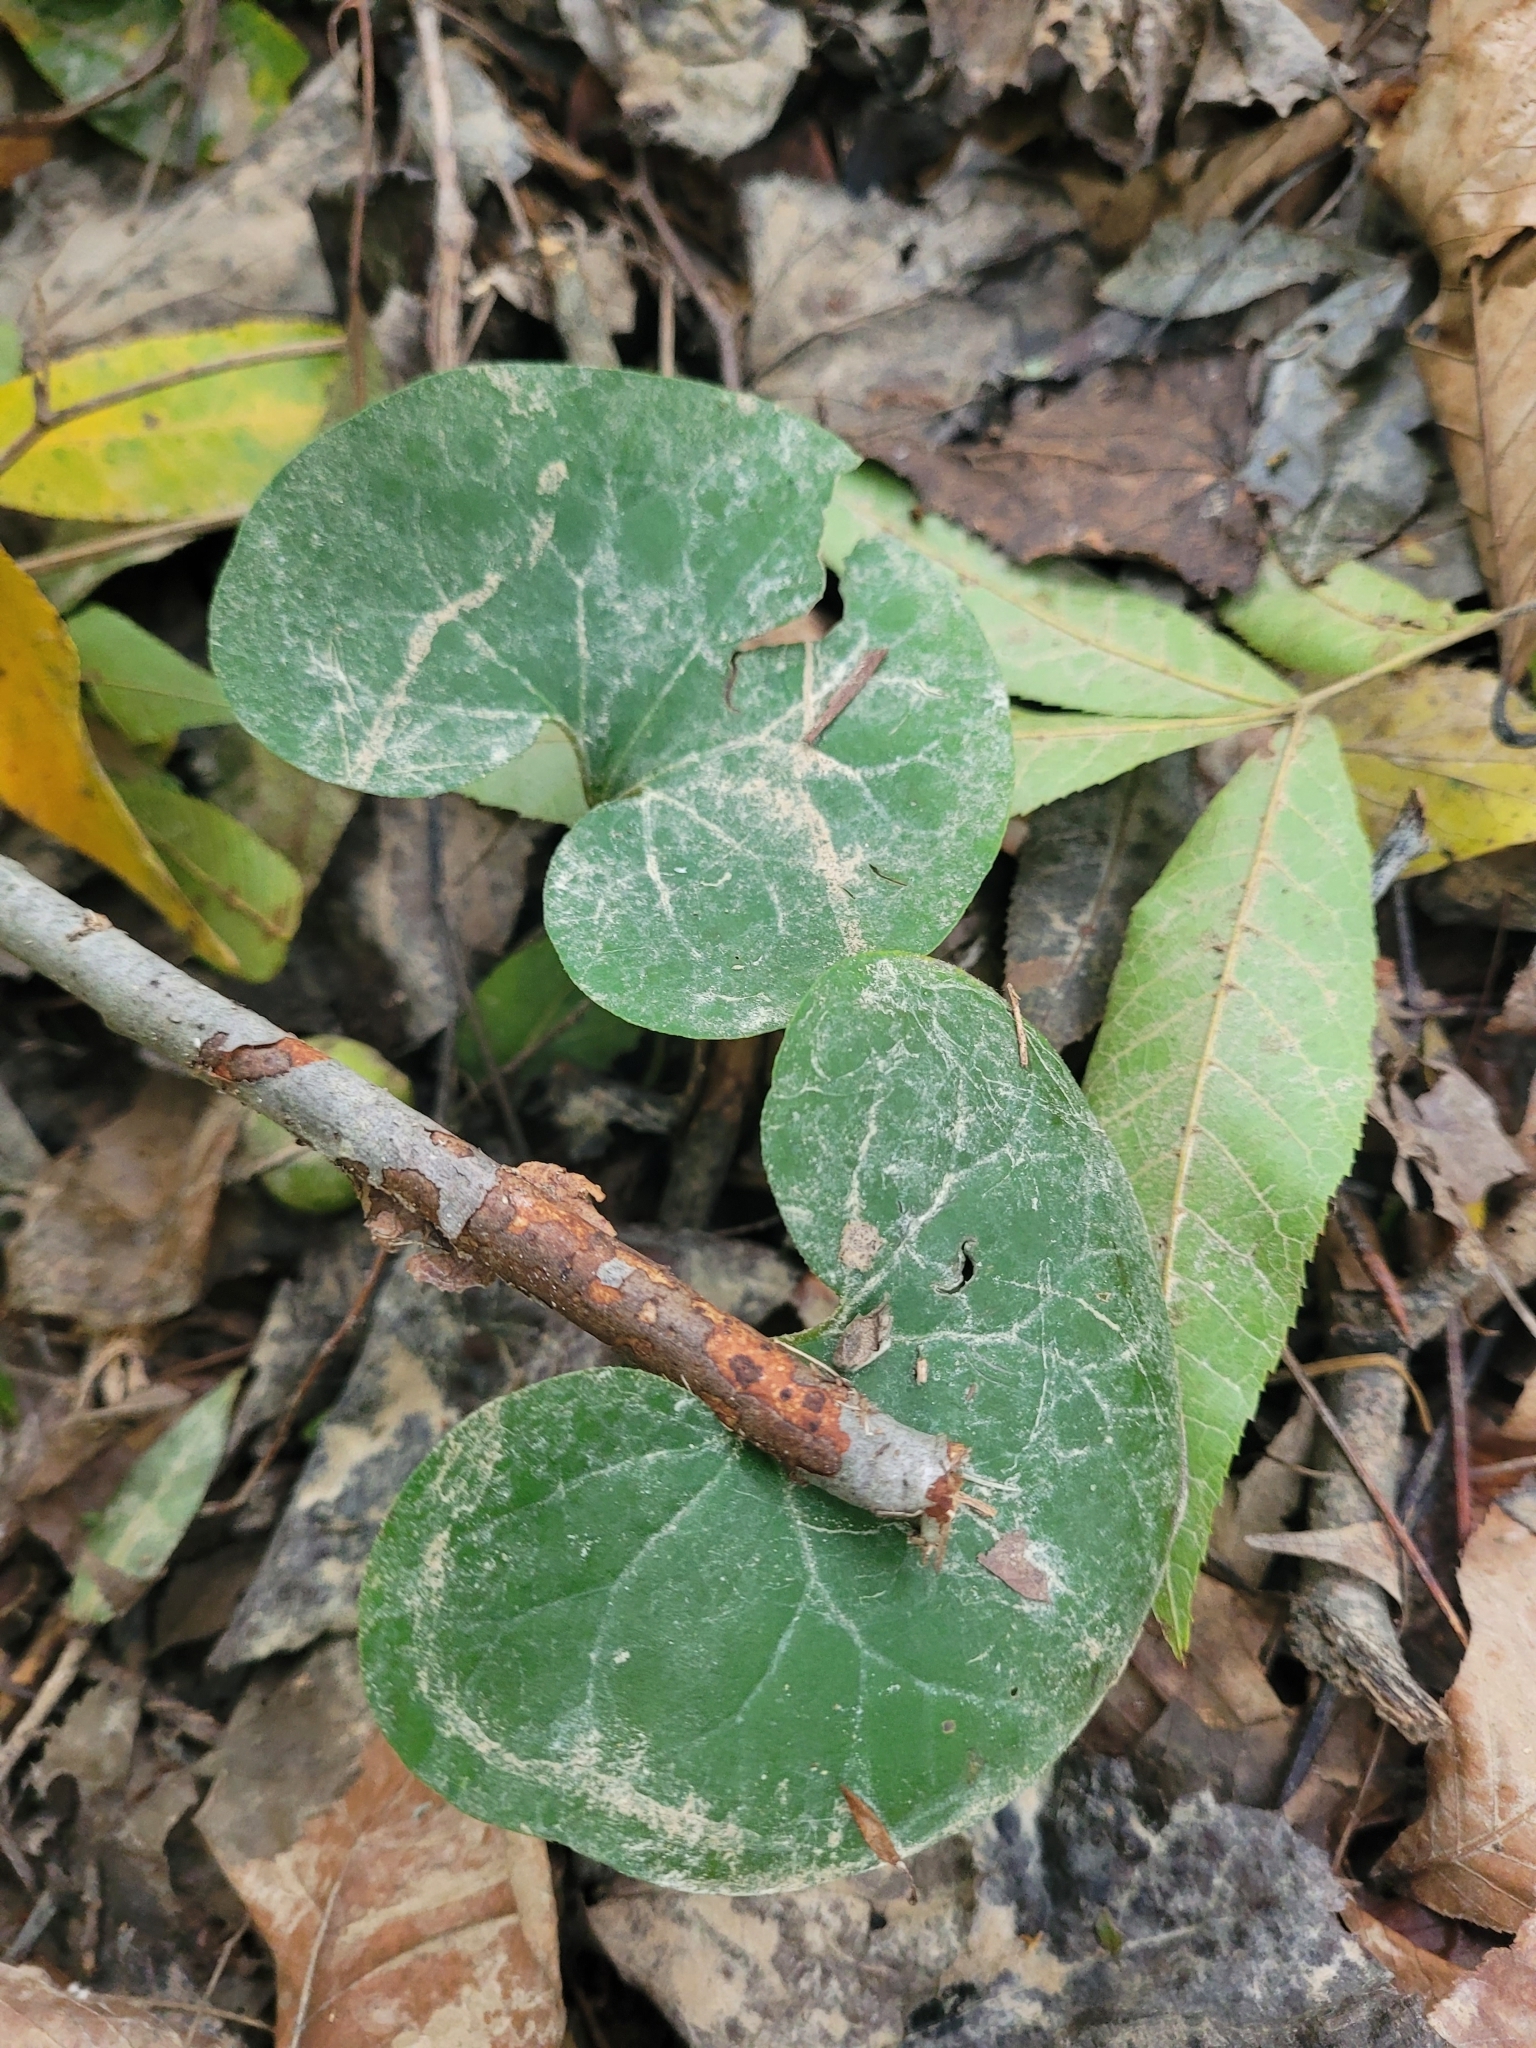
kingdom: Plantae
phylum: Tracheophyta
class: Magnoliopsida
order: Piperales
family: Aristolochiaceae
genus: Asarum
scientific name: Asarum canadense
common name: Wild ginger
